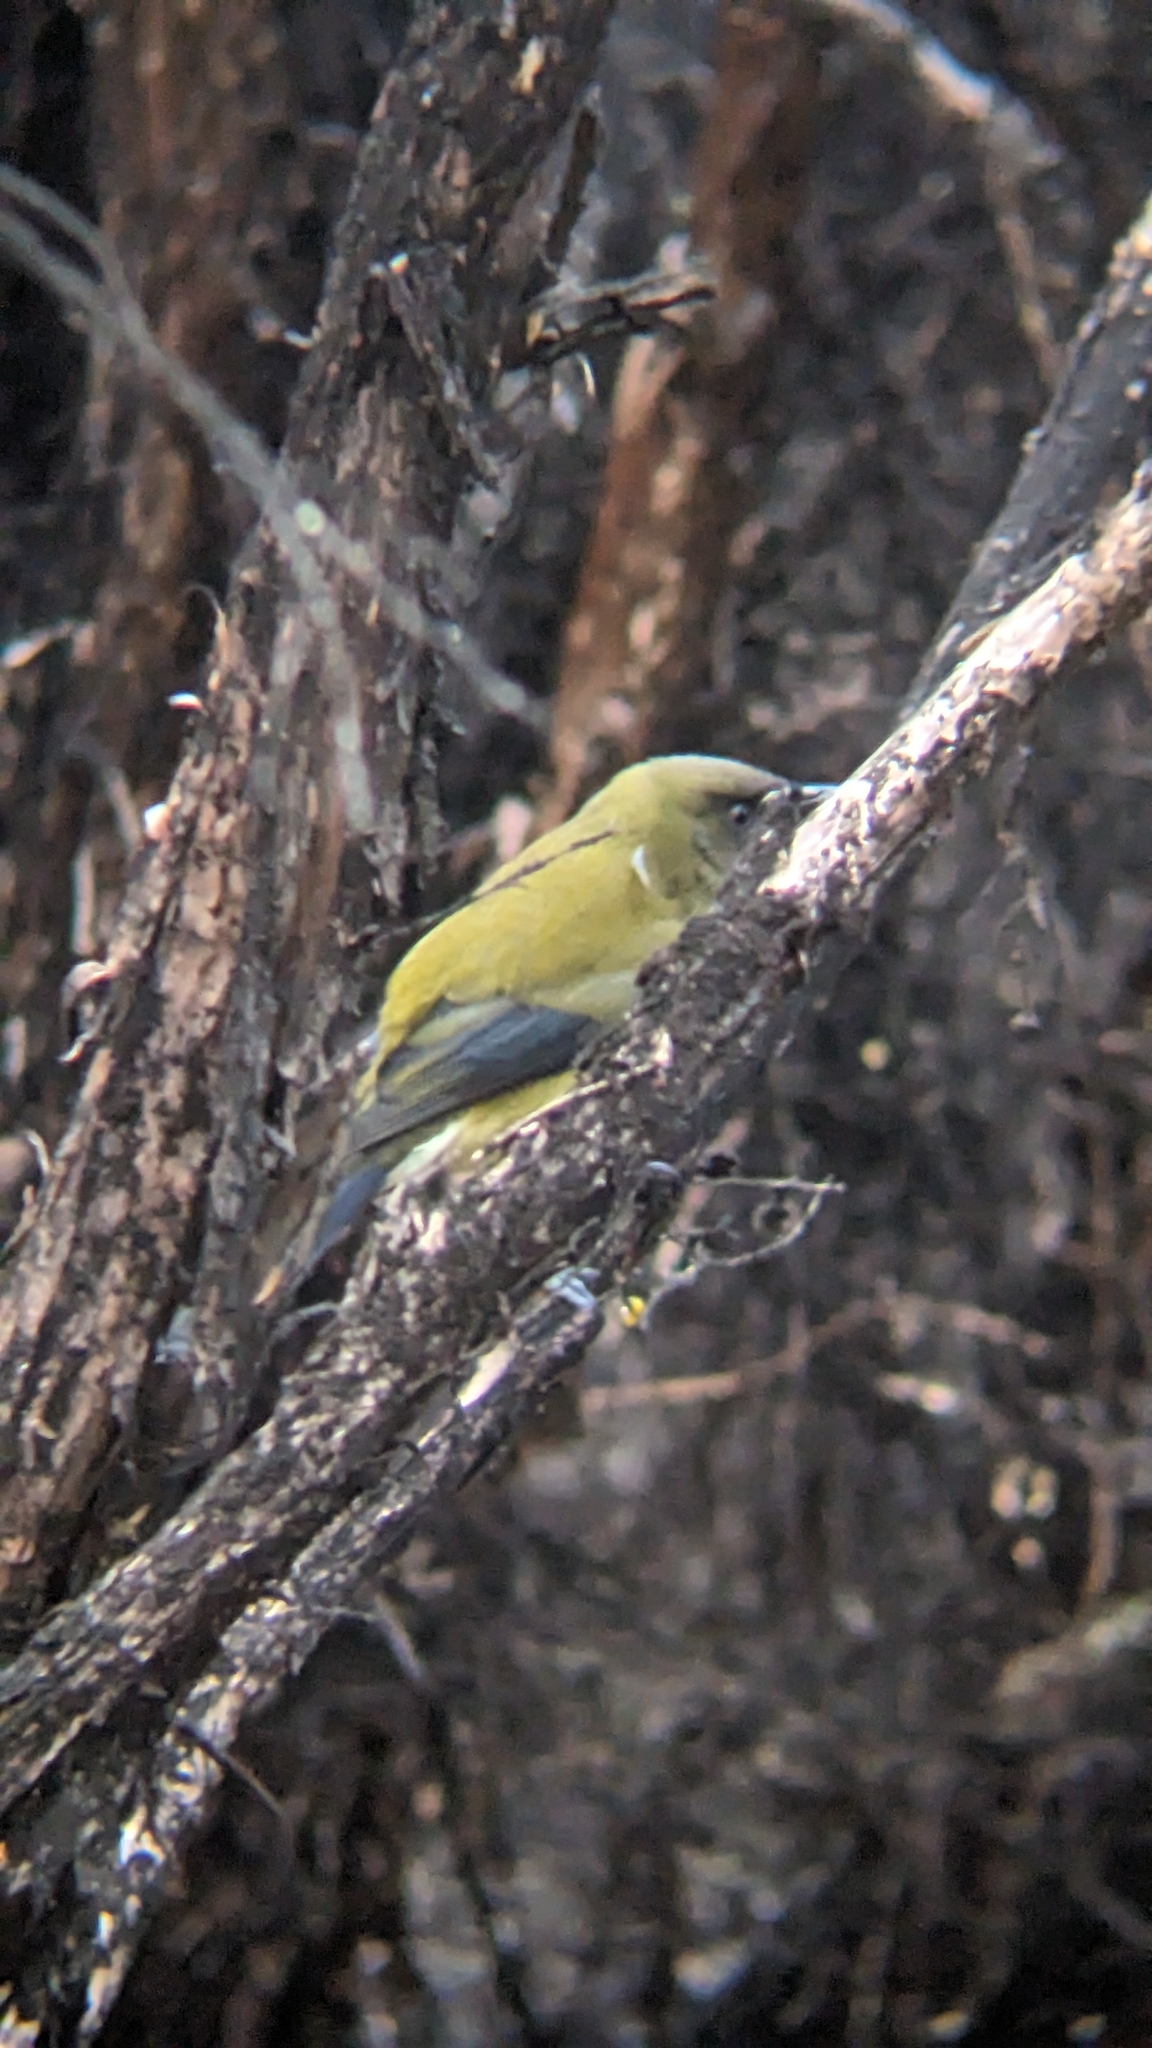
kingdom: Animalia
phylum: Chordata
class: Aves
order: Passeriformes
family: Meliphagidae
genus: Anthornis
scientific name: Anthornis melanura
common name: New zealand bellbird
